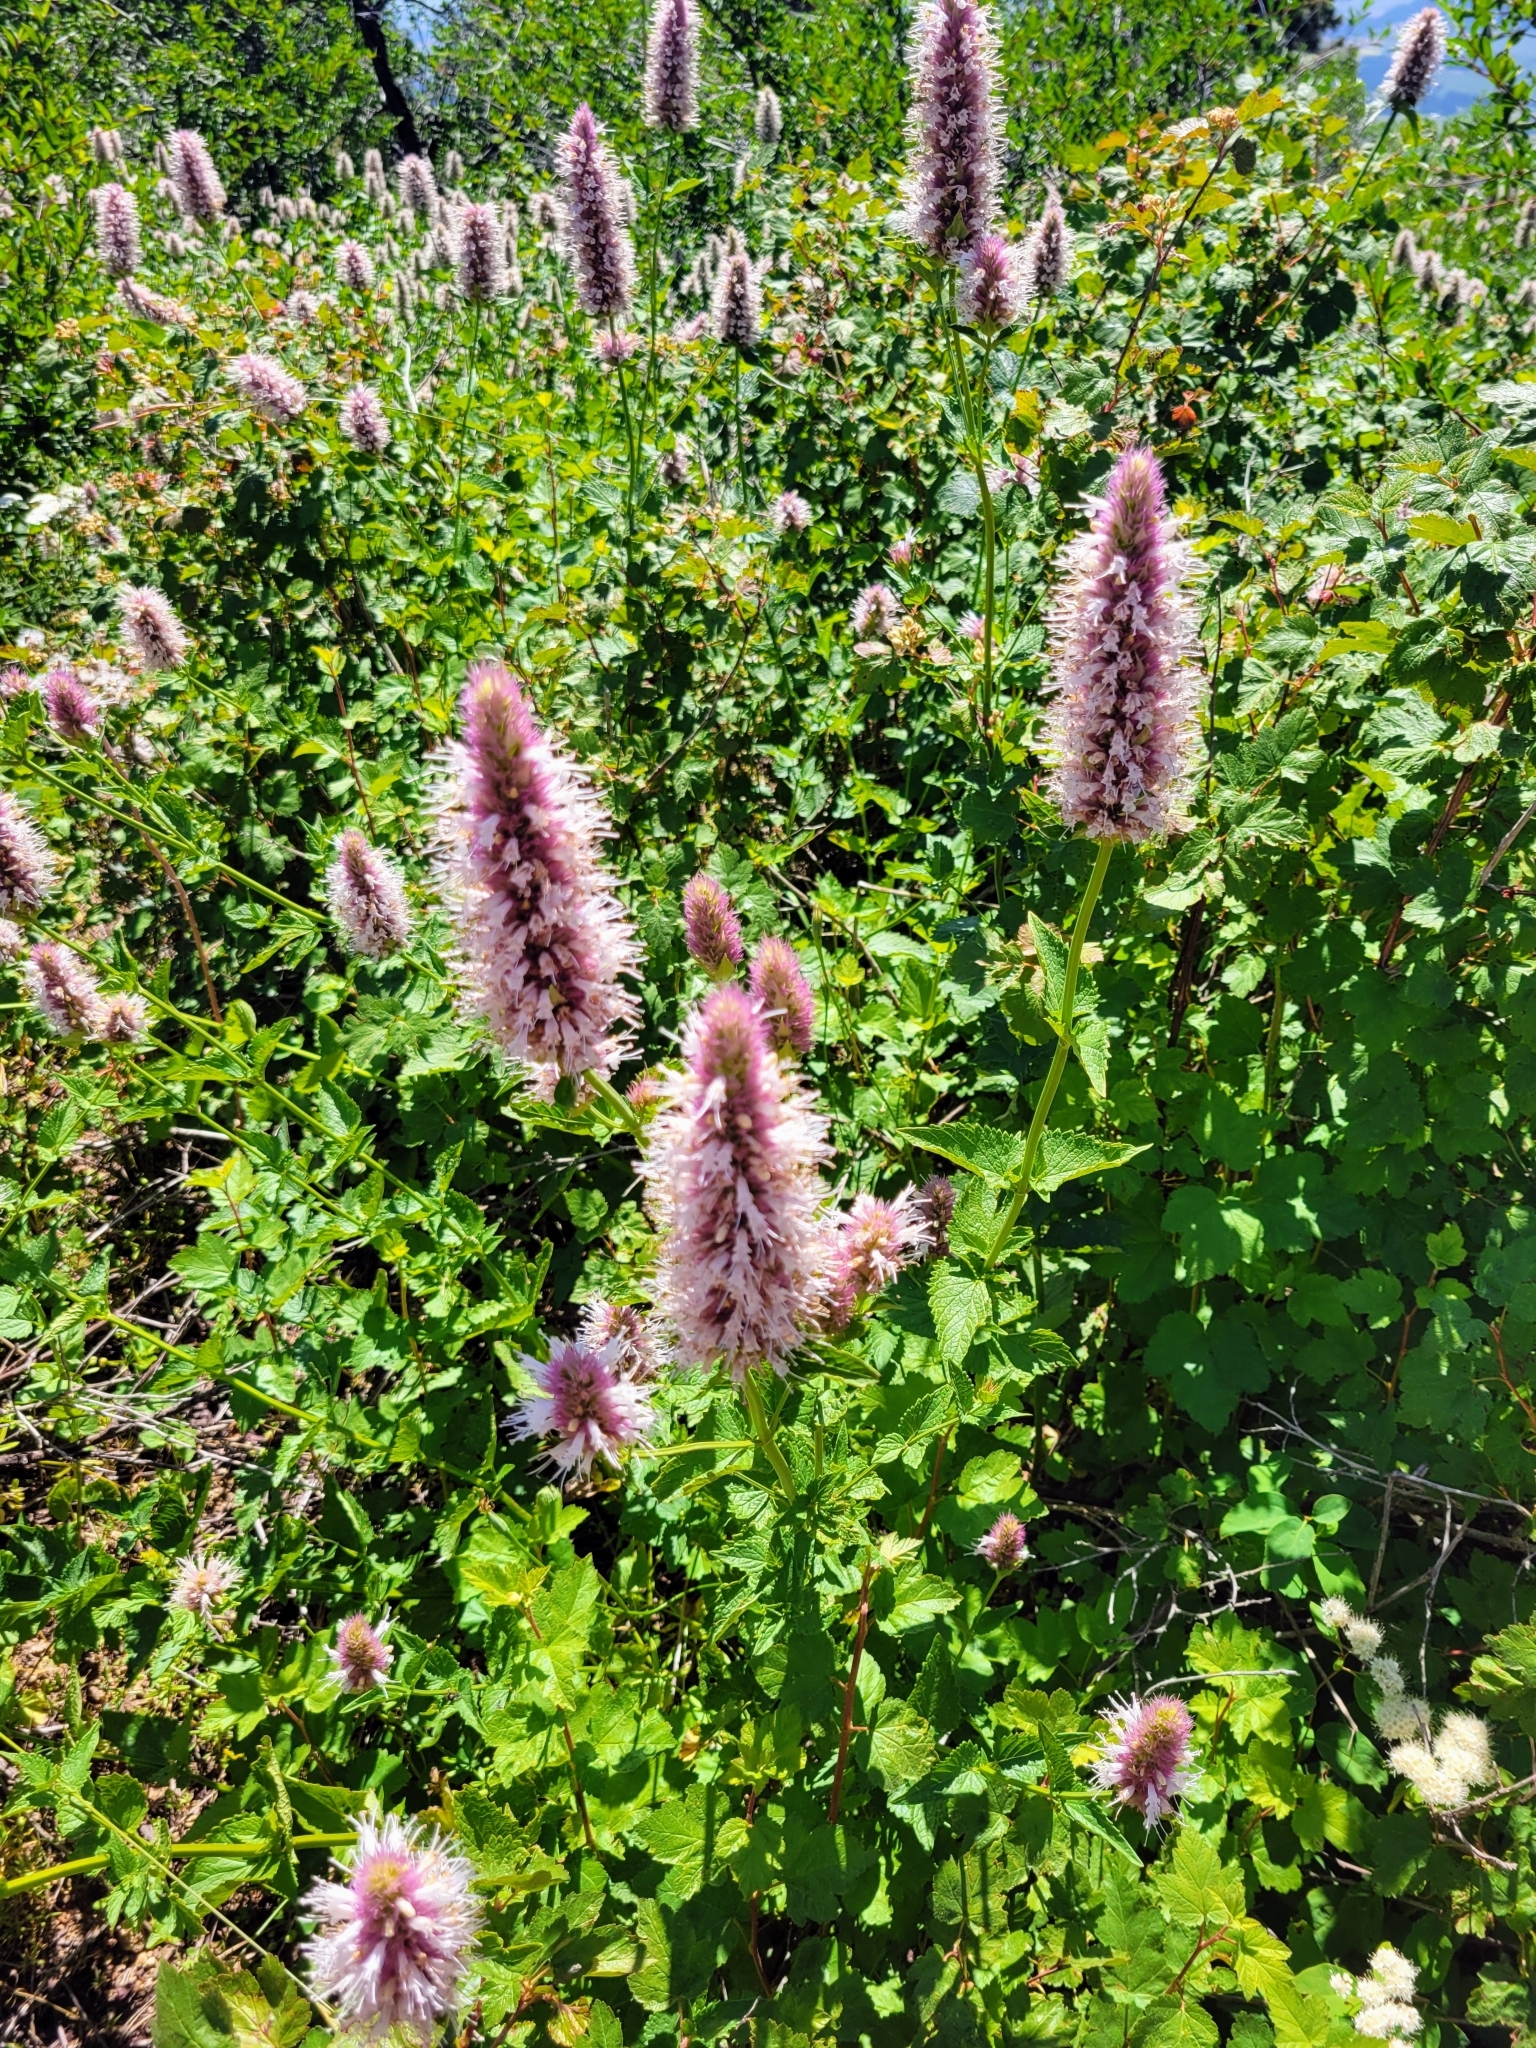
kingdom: Plantae
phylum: Tracheophyta
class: Magnoliopsida
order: Lamiales
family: Lamiaceae
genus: Agastache
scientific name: Agastache urticifolia
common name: Horsemint giant hyssop
